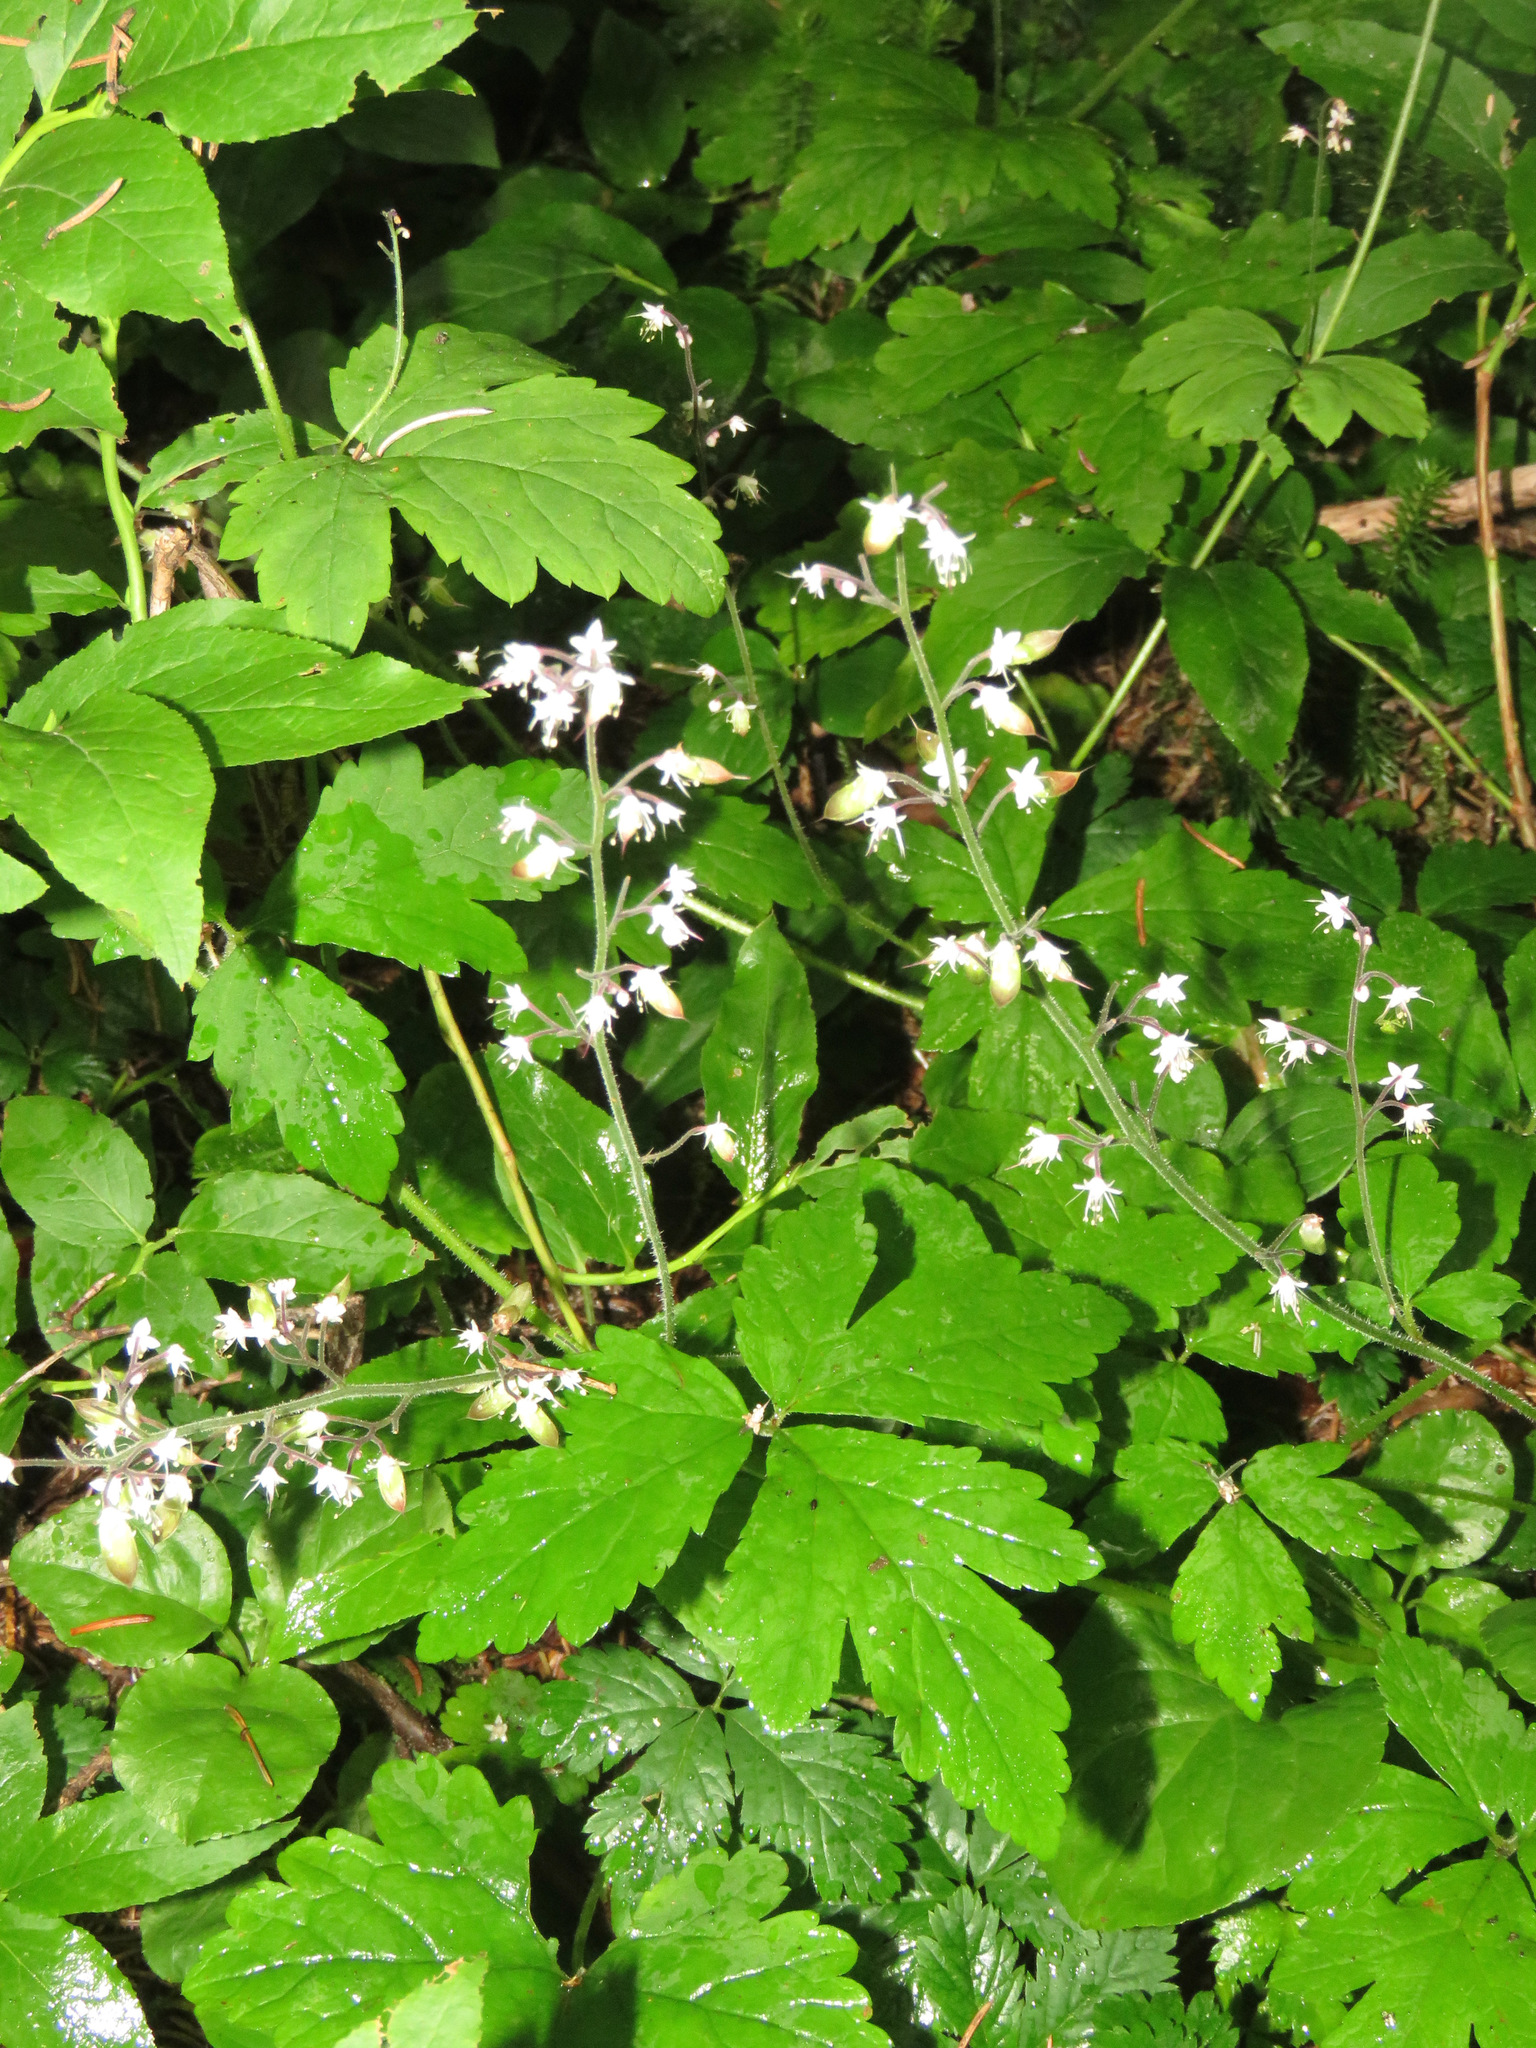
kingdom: Plantae
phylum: Tracheophyta
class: Magnoliopsida
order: Saxifragales
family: Saxifragaceae
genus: Tiarella
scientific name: Tiarella trifoliata
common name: Sugar-scoop
